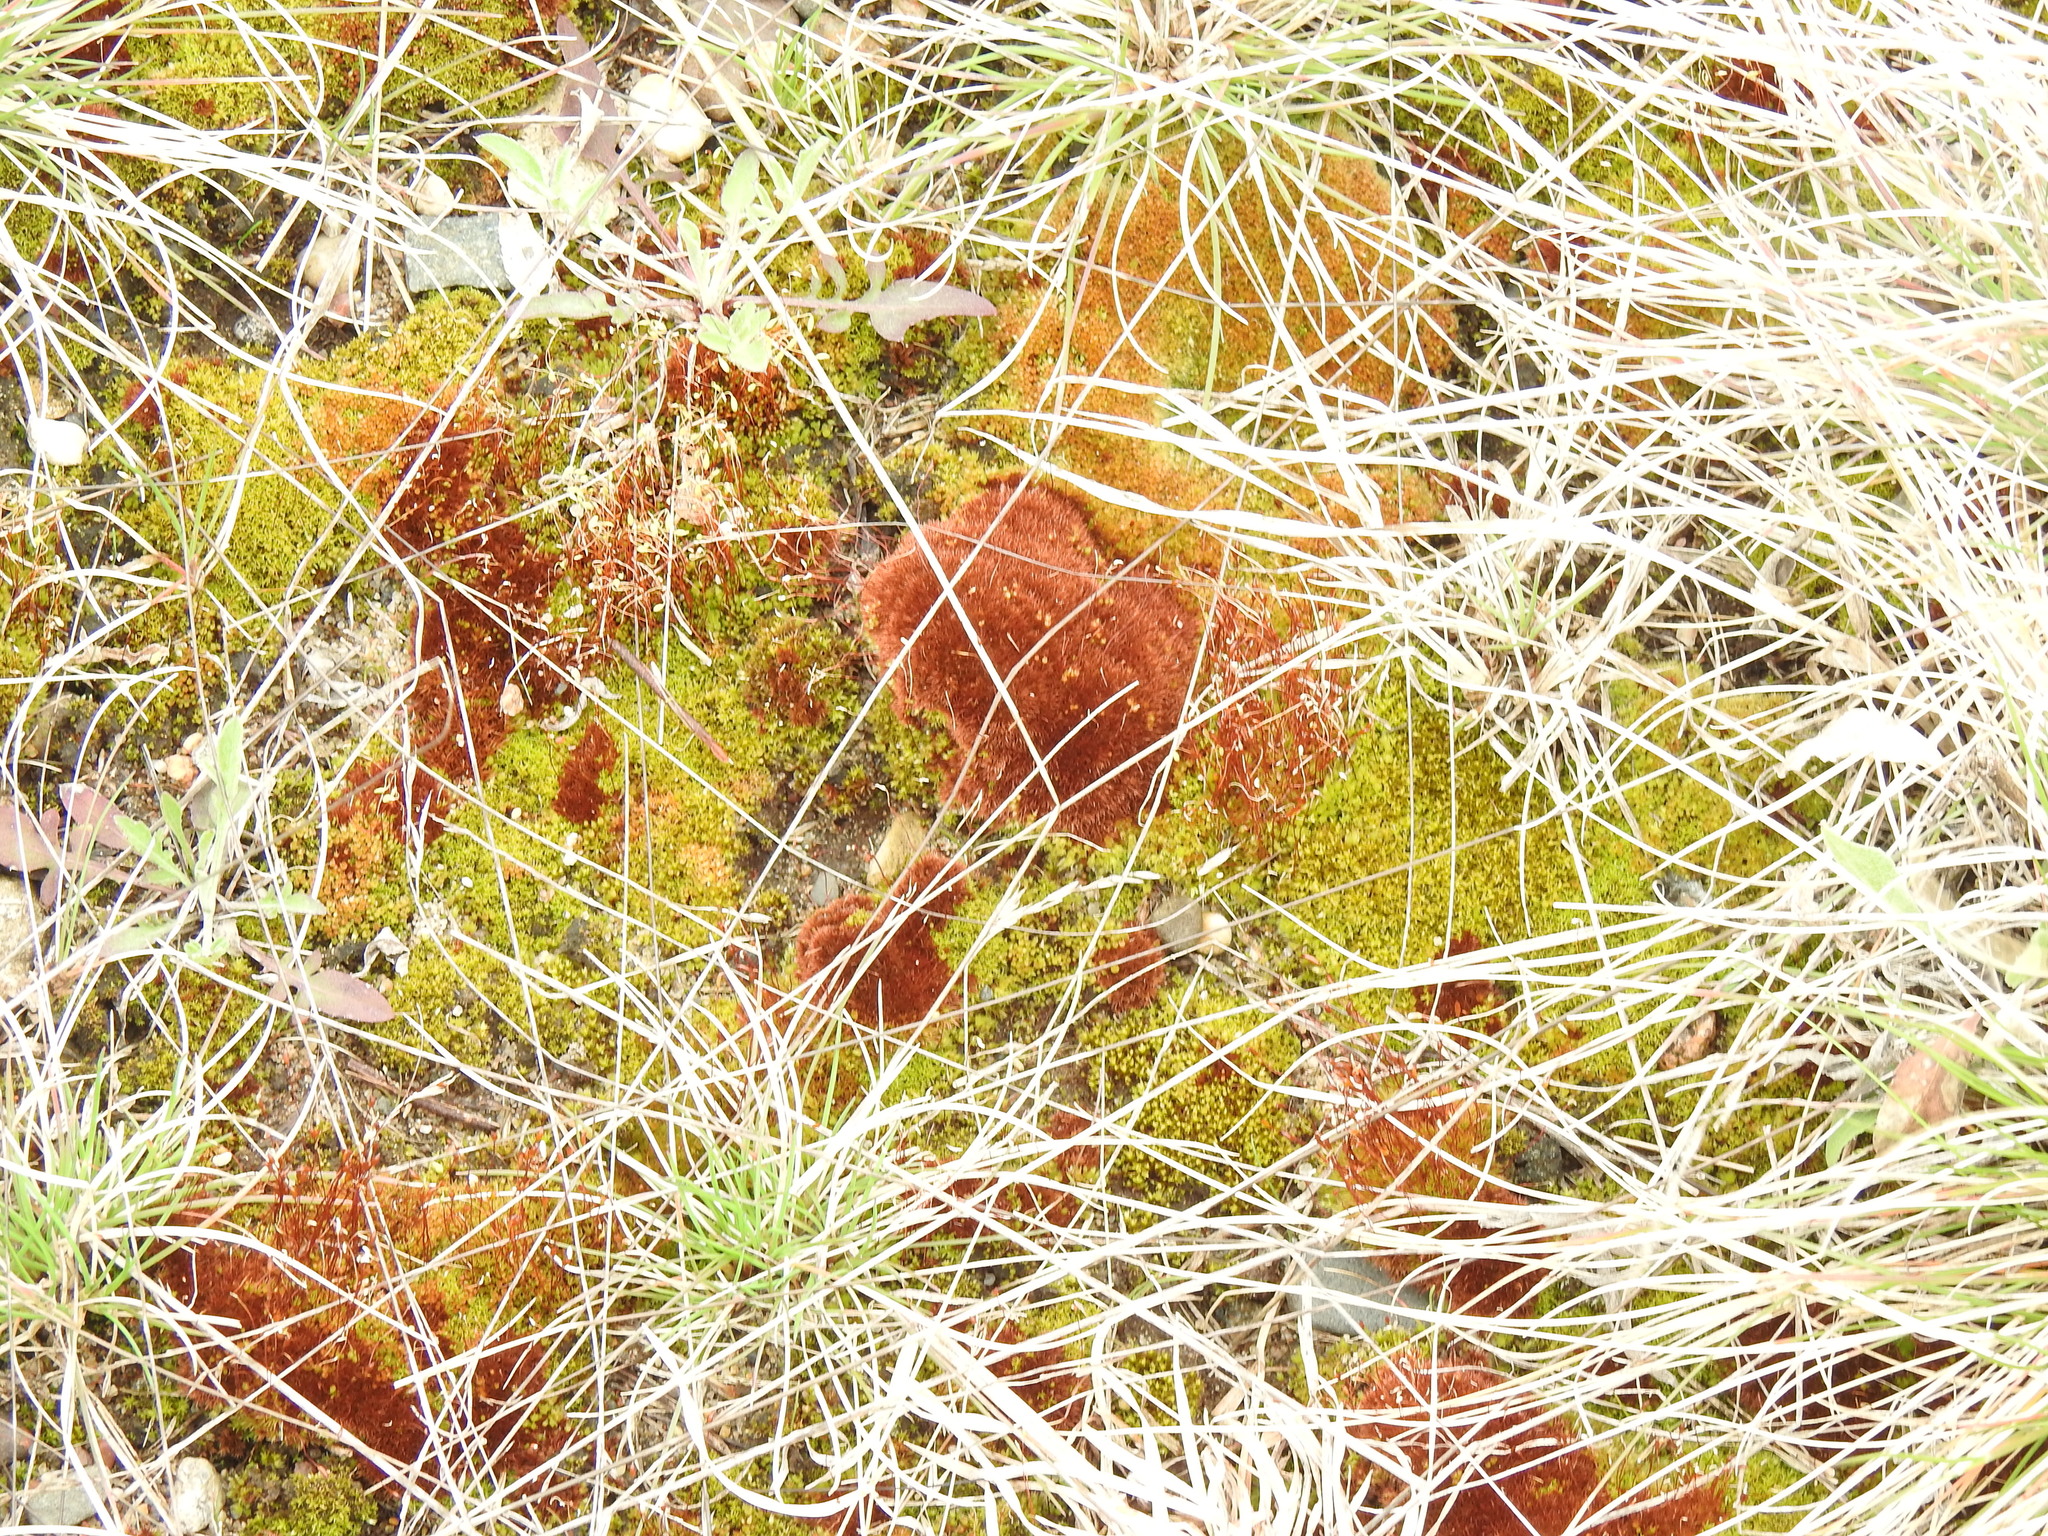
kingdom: Plantae
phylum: Bryophyta
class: Bryopsida
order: Dicranales
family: Ditrichaceae
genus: Ceratodon
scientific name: Ceratodon purpureus
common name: Redshank
